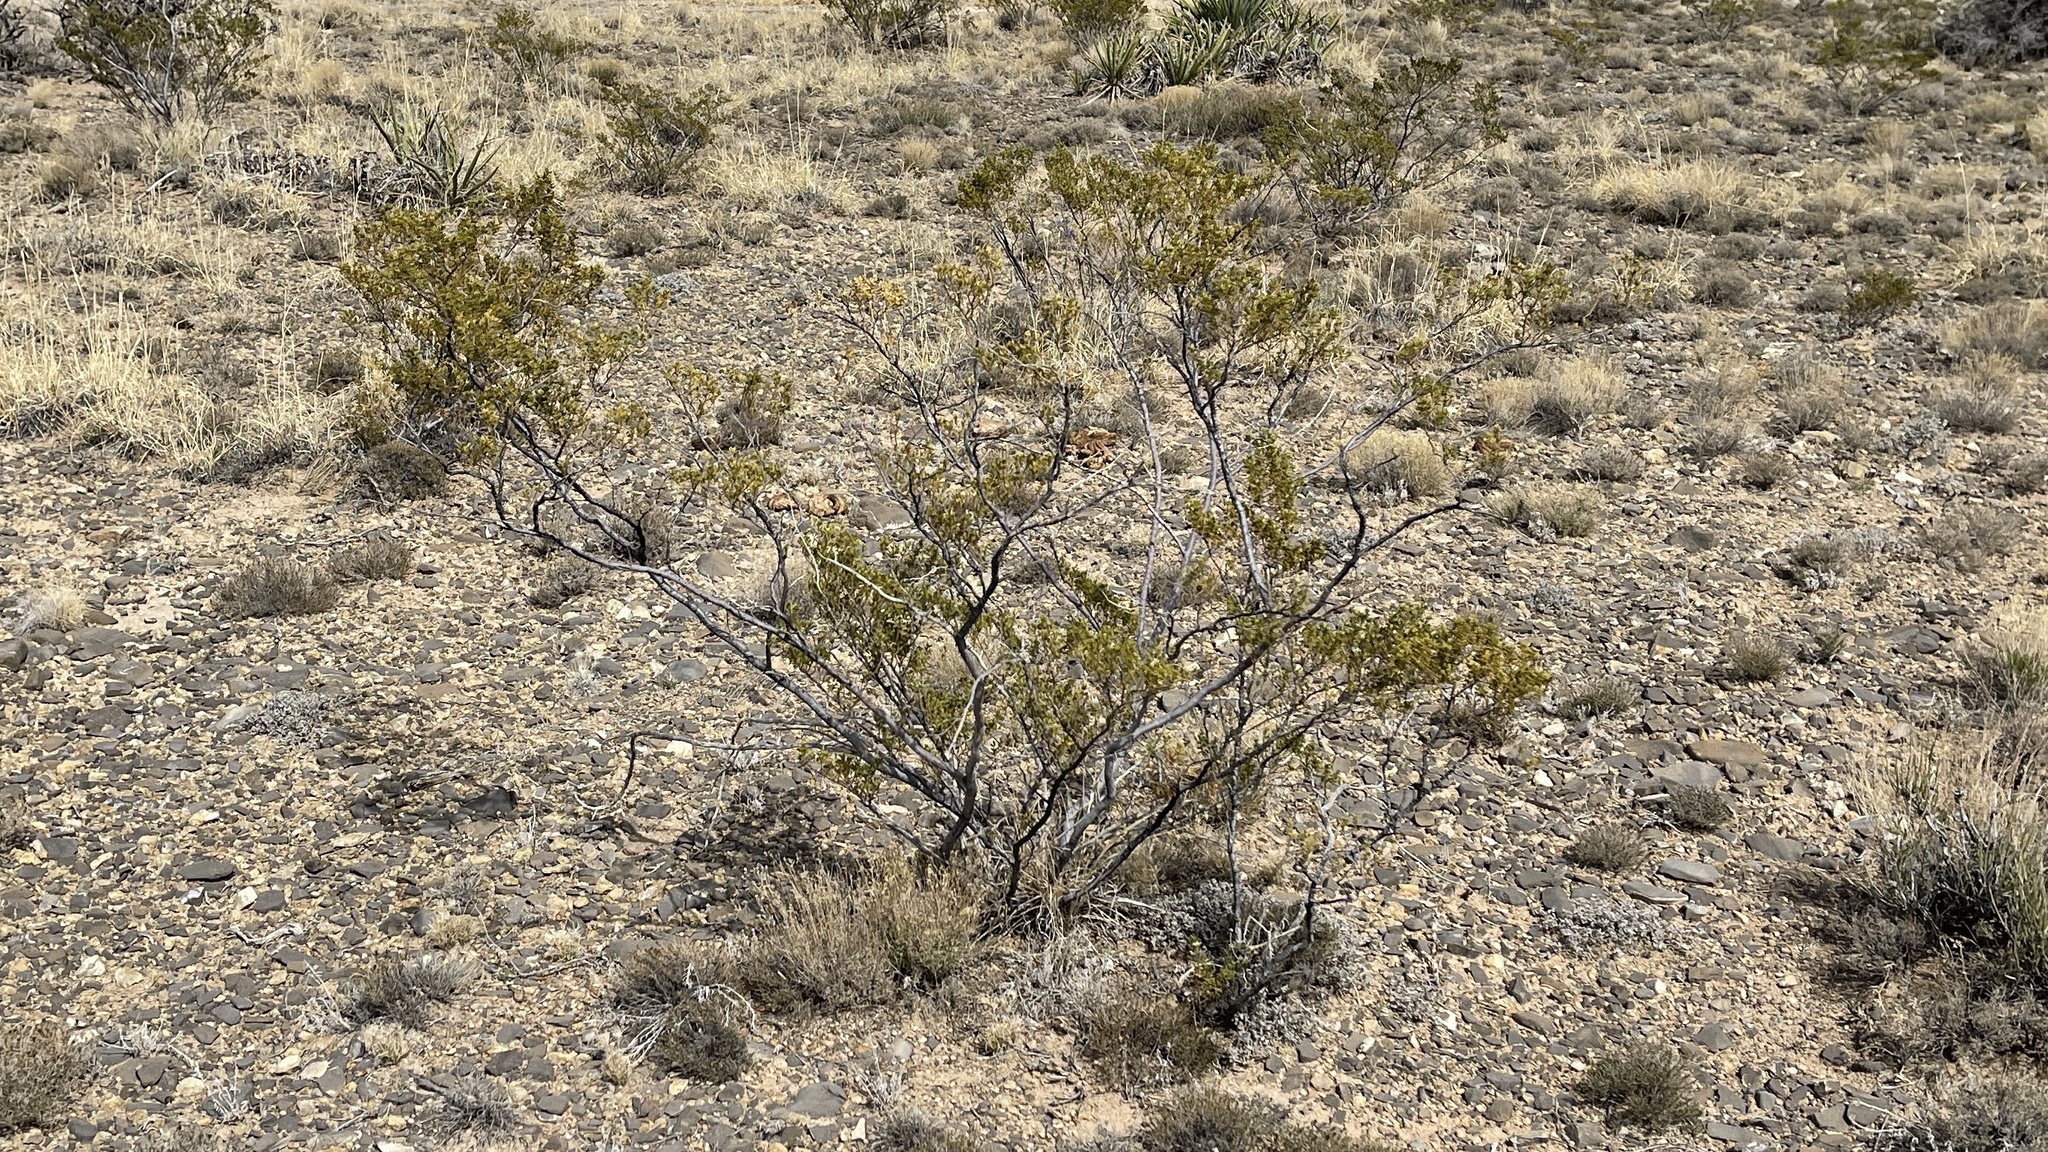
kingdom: Plantae
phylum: Tracheophyta
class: Magnoliopsida
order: Zygophyllales
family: Zygophyllaceae
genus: Larrea
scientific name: Larrea tridentata
